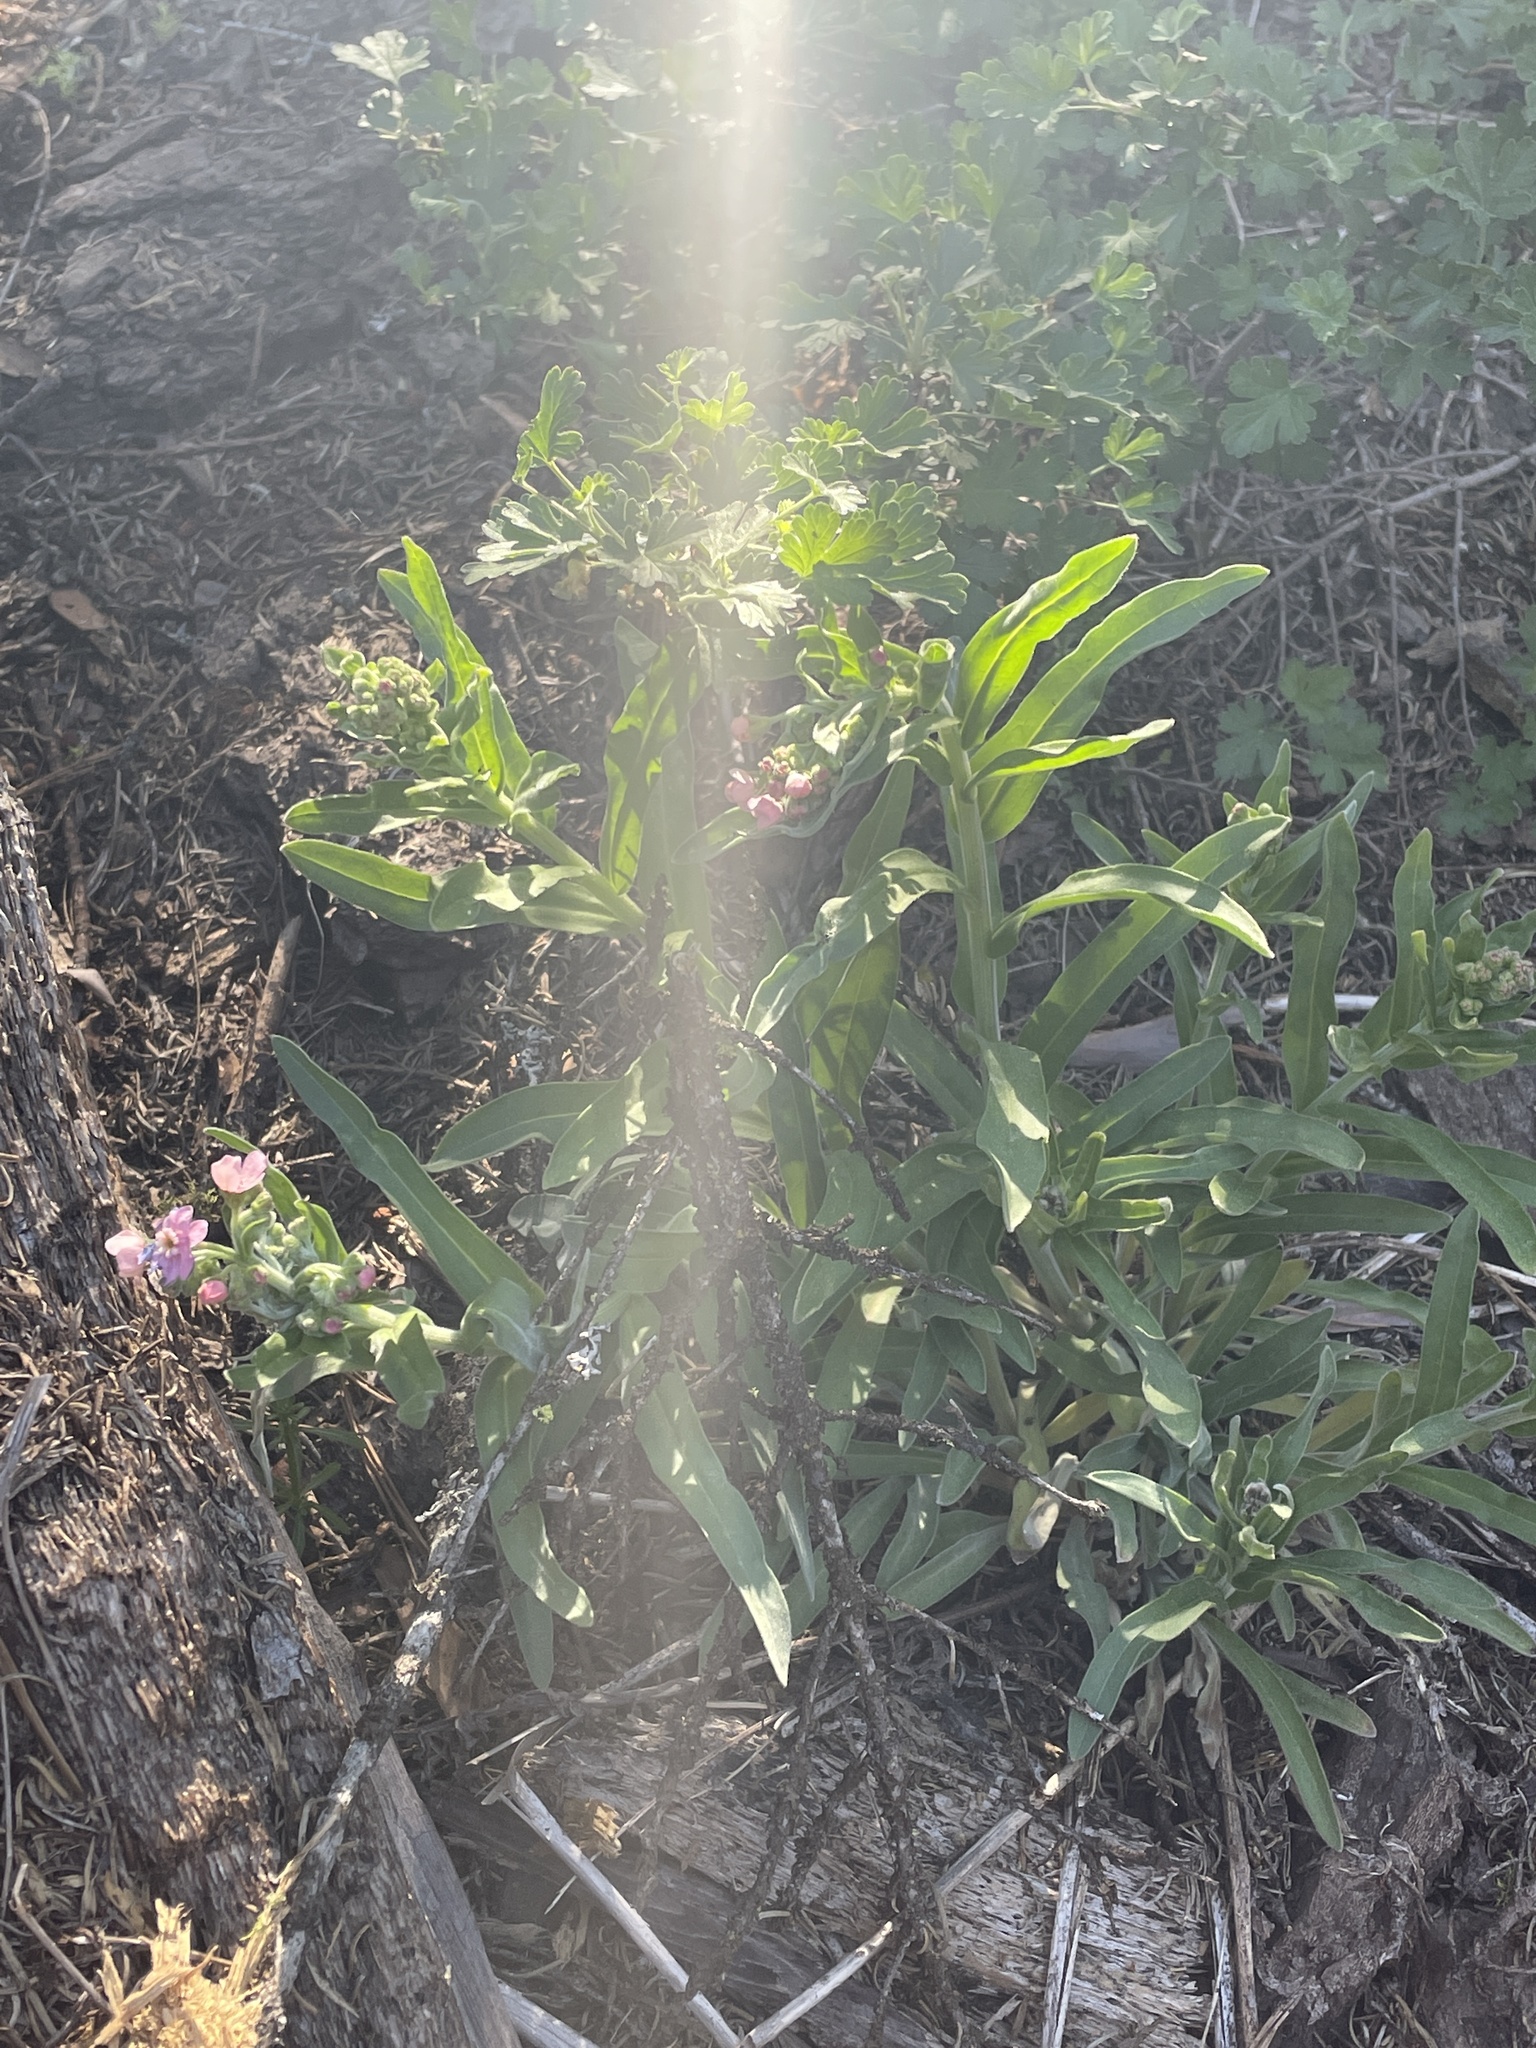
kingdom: Plantae
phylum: Tracheophyta
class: Magnoliopsida
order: Boraginales
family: Boraginaceae
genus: Hackelia
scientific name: Hackelia mundula
